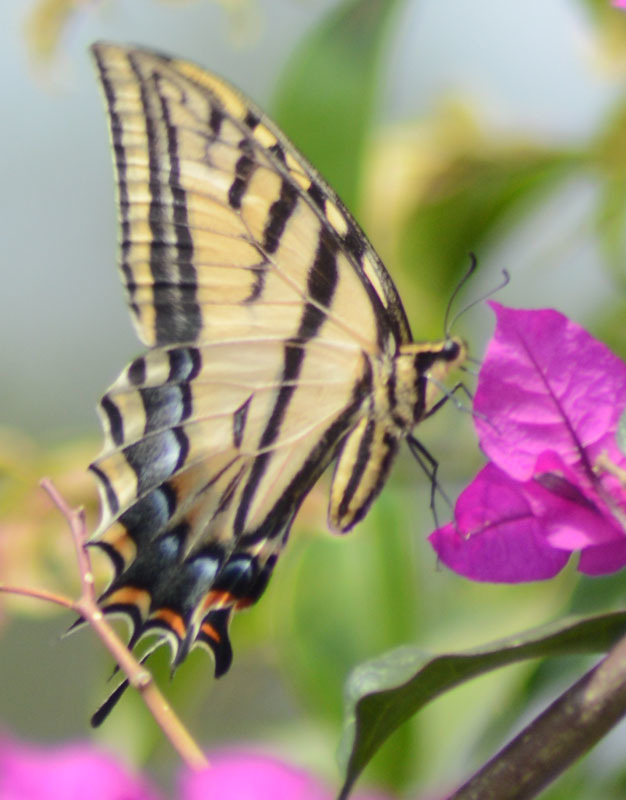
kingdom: Animalia
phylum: Arthropoda
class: Insecta
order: Lepidoptera
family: Papilionidae
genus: Papilio
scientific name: Papilio multicaudata
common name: Two-tailed tiger swallowtail
